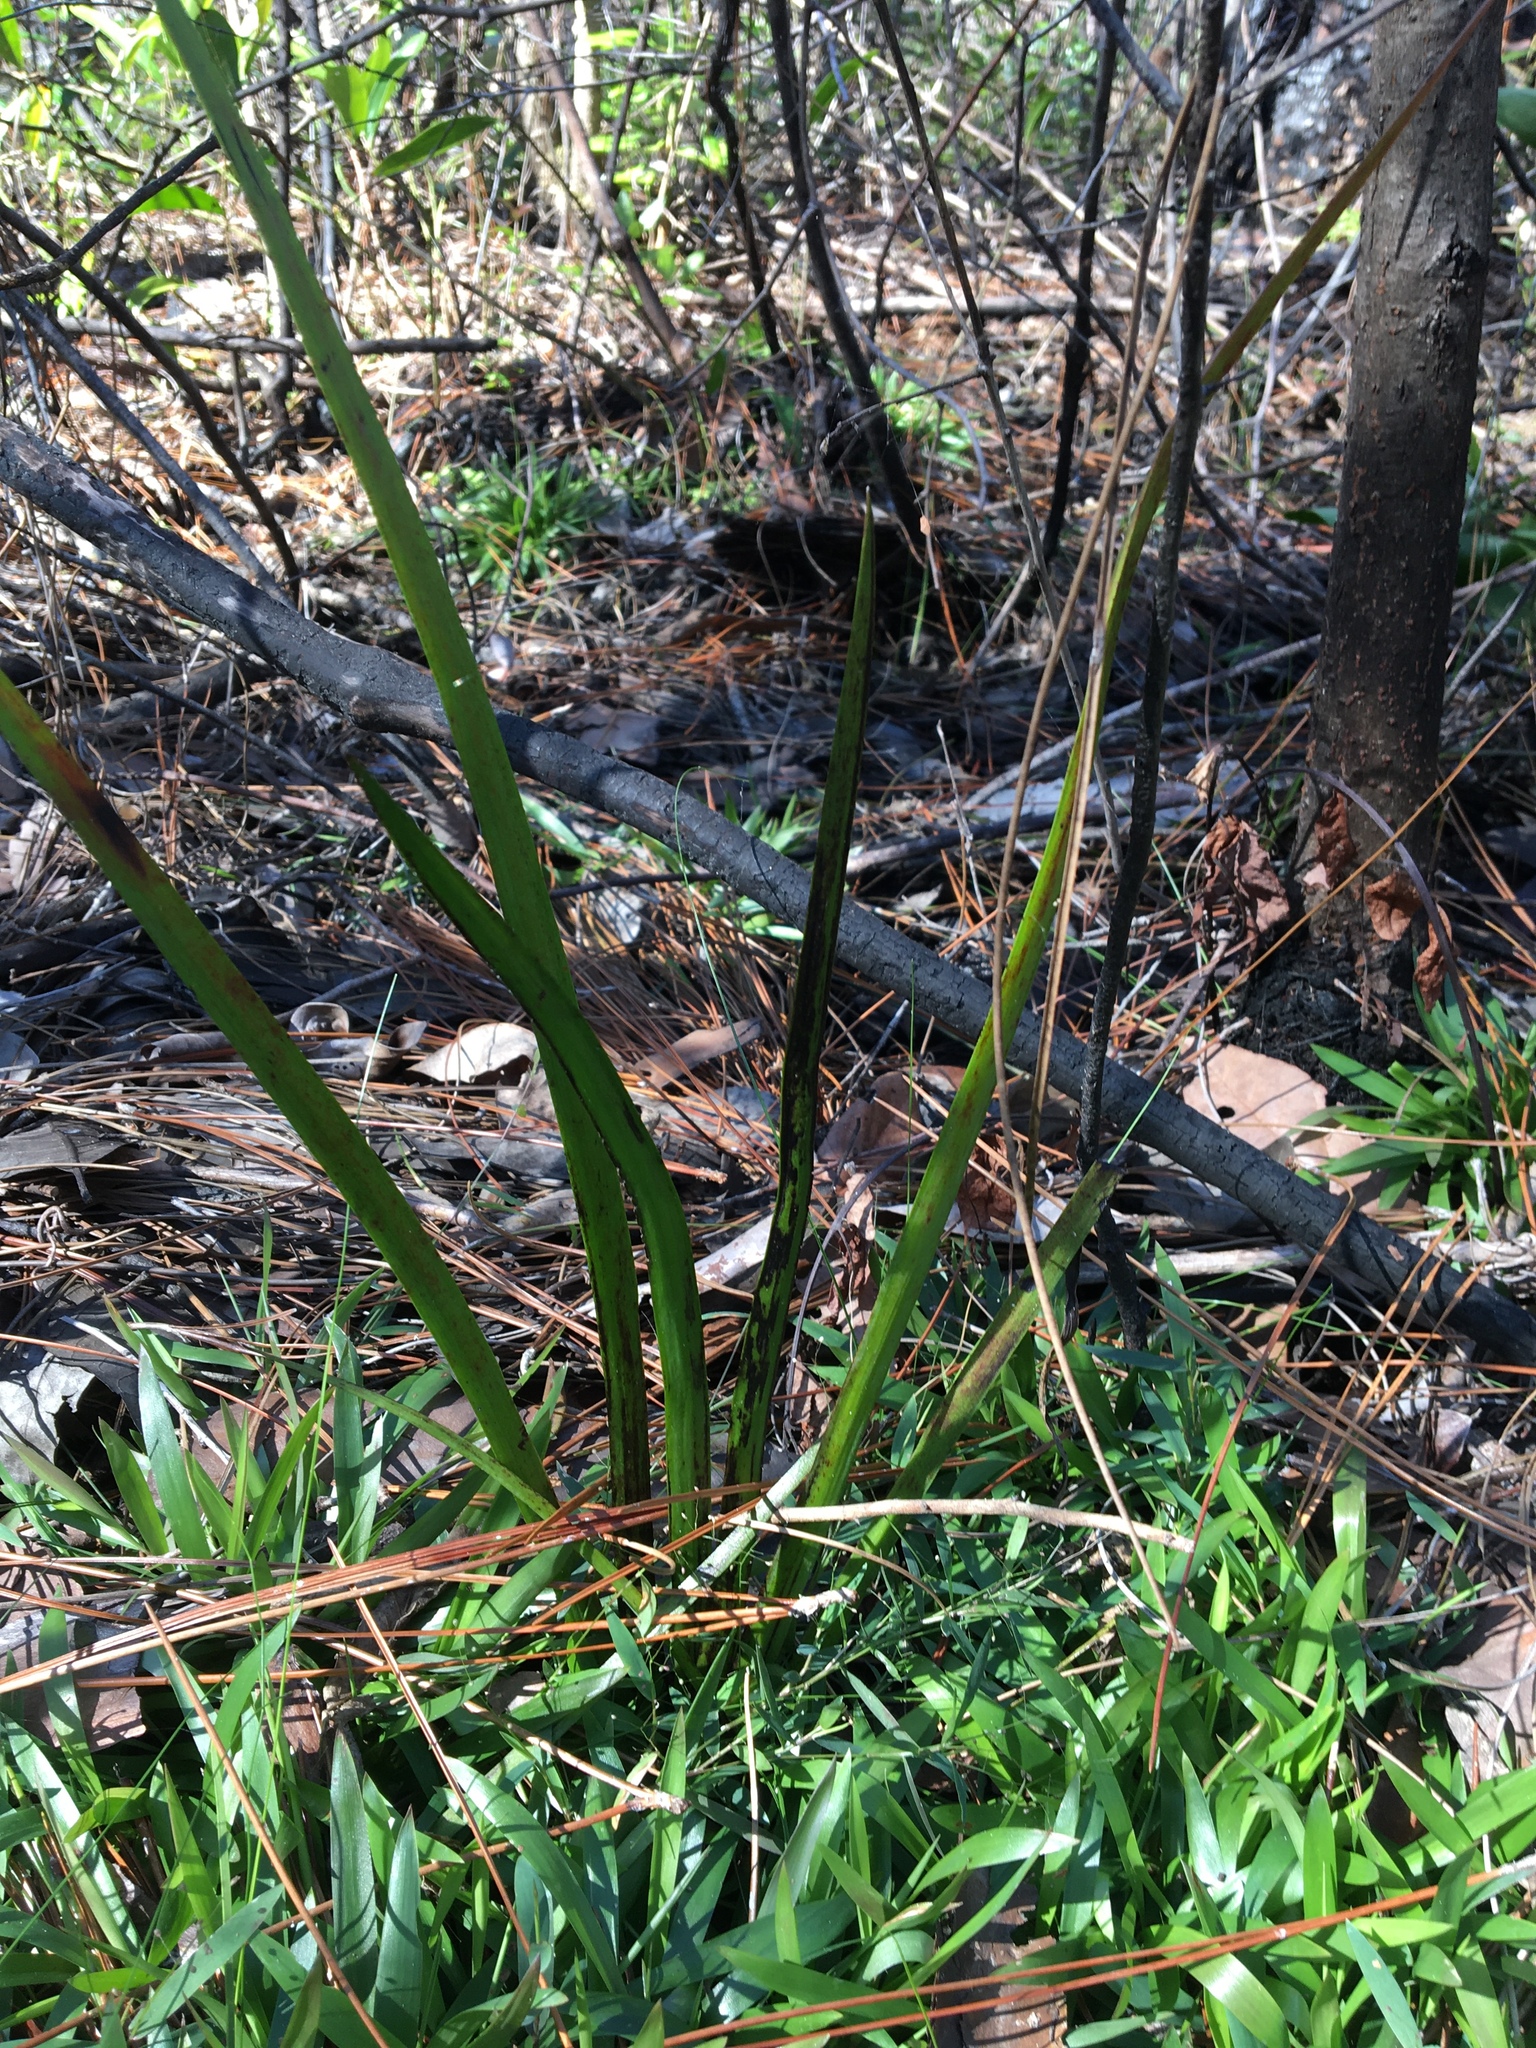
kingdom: Plantae
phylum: Tracheophyta
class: Liliopsida
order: Commelinales
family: Haemodoraceae
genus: Lachnanthes
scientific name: Lachnanthes caroliana
